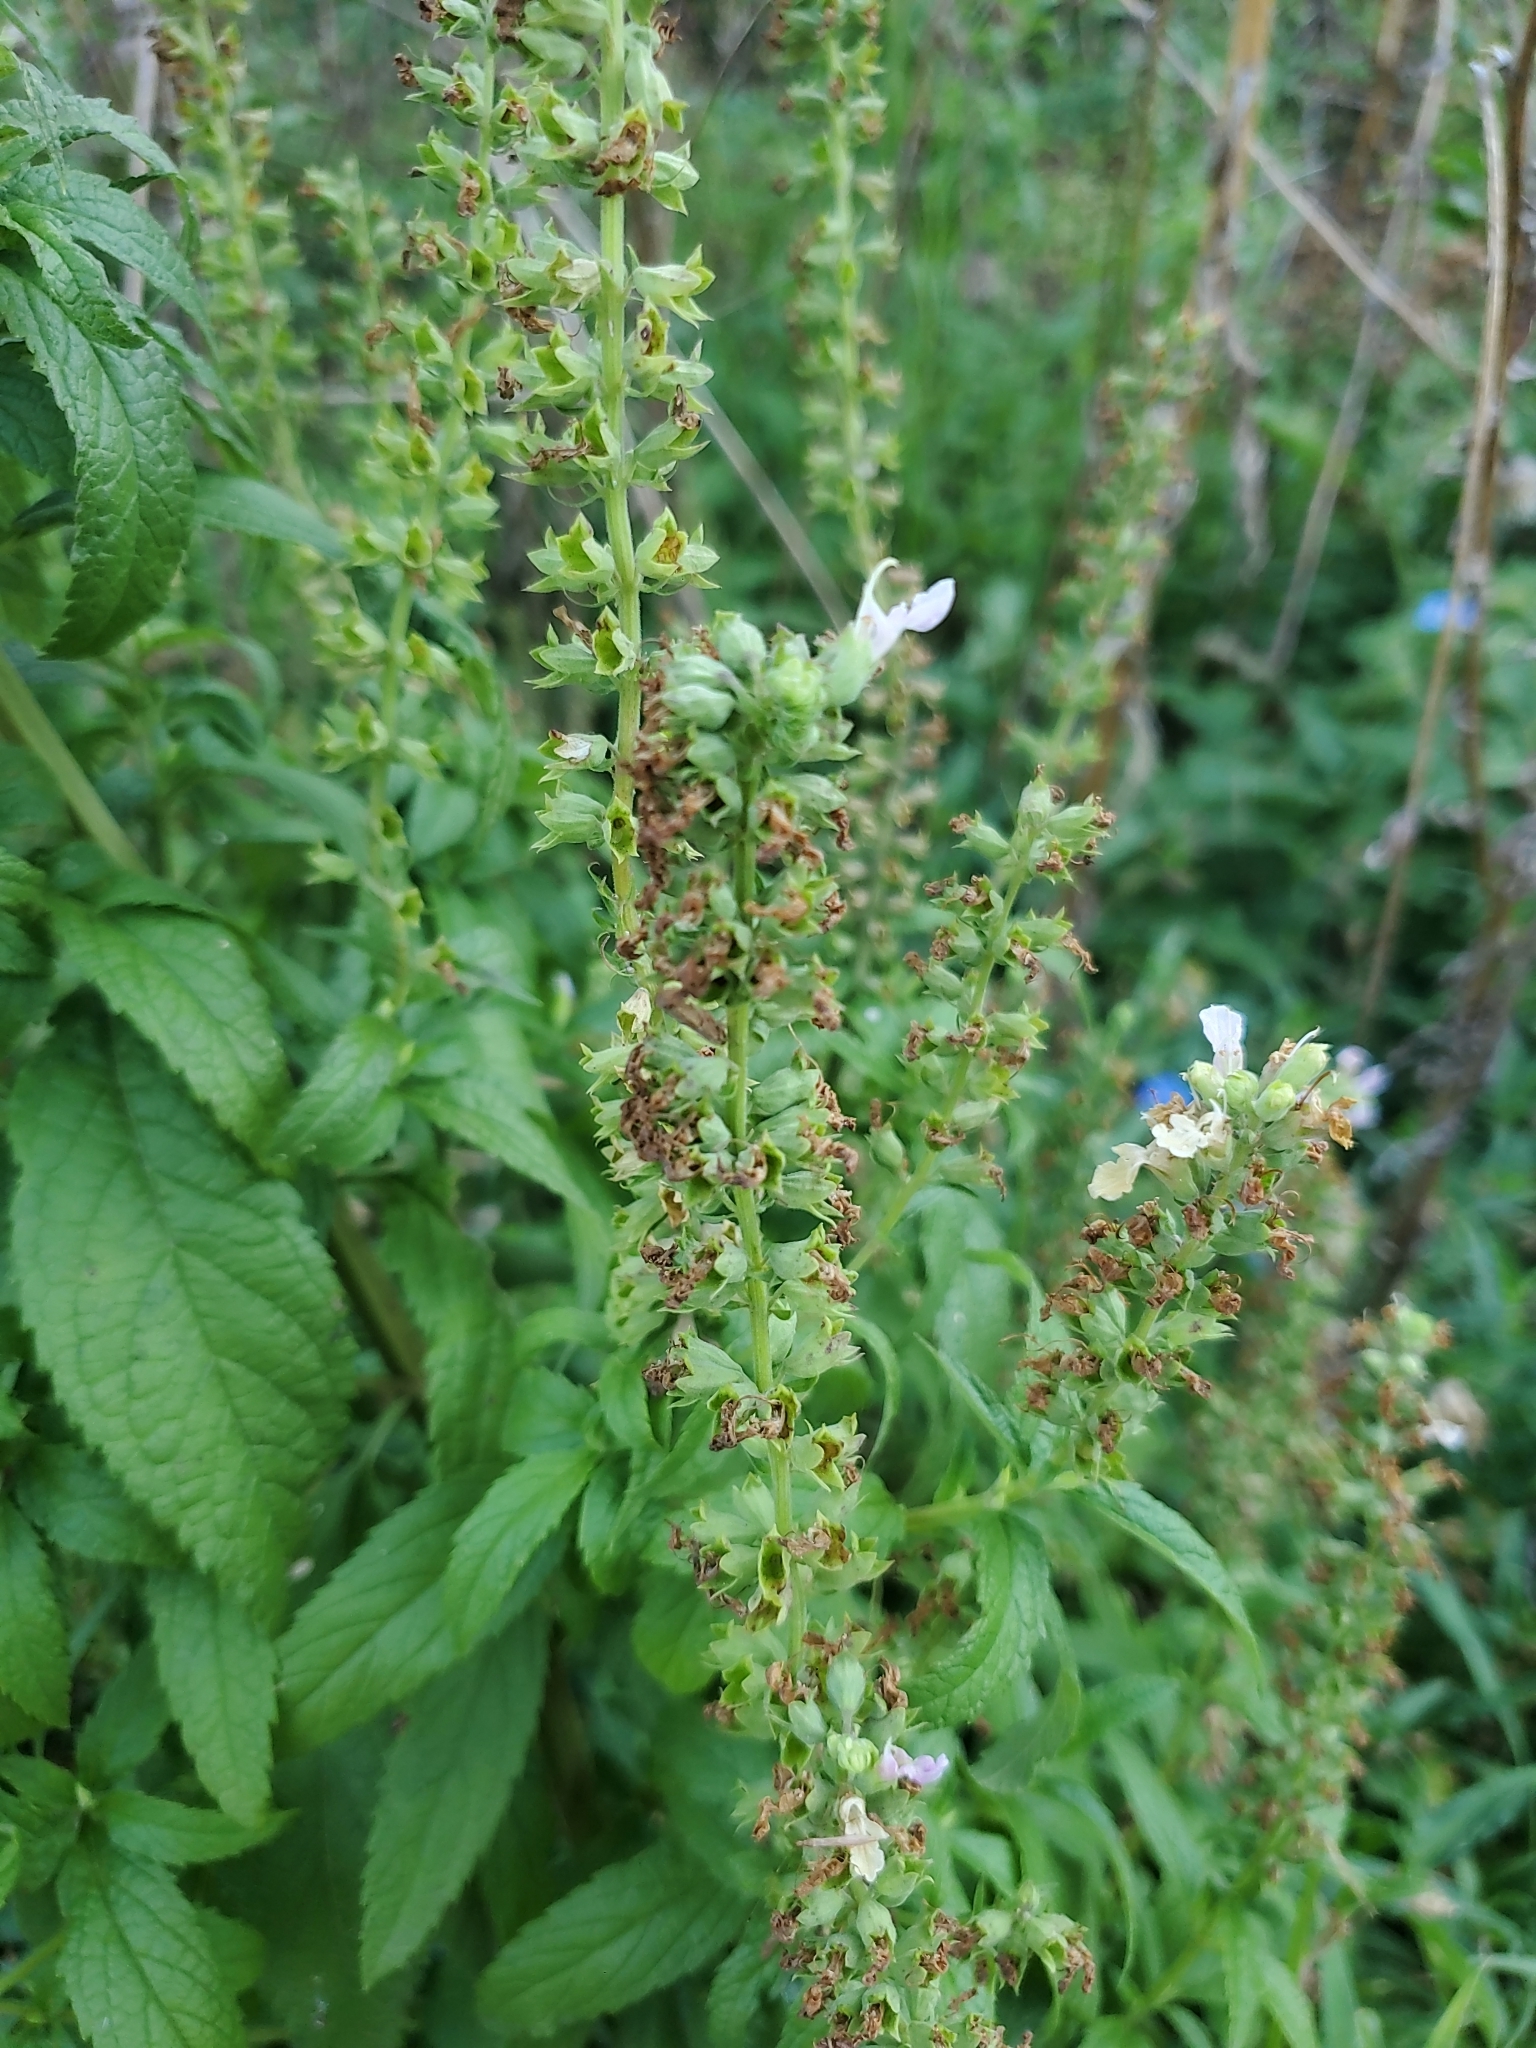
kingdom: Plantae
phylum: Tracheophyta
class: Magnoliopsida
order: Lamiales
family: Lamiaceae
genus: Teucrium
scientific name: Teucrium canadense
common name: American germander
